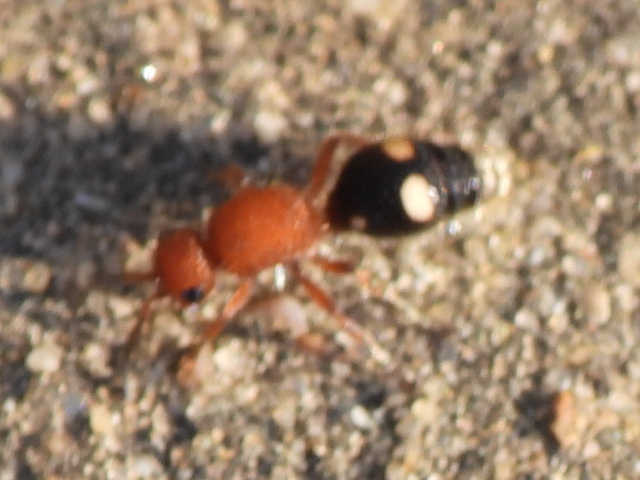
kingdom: Animalia
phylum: Arthropoda
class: Insecta
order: Hymenoptera
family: Mutillidae
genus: Dasymutilla
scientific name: Dasymutilla
